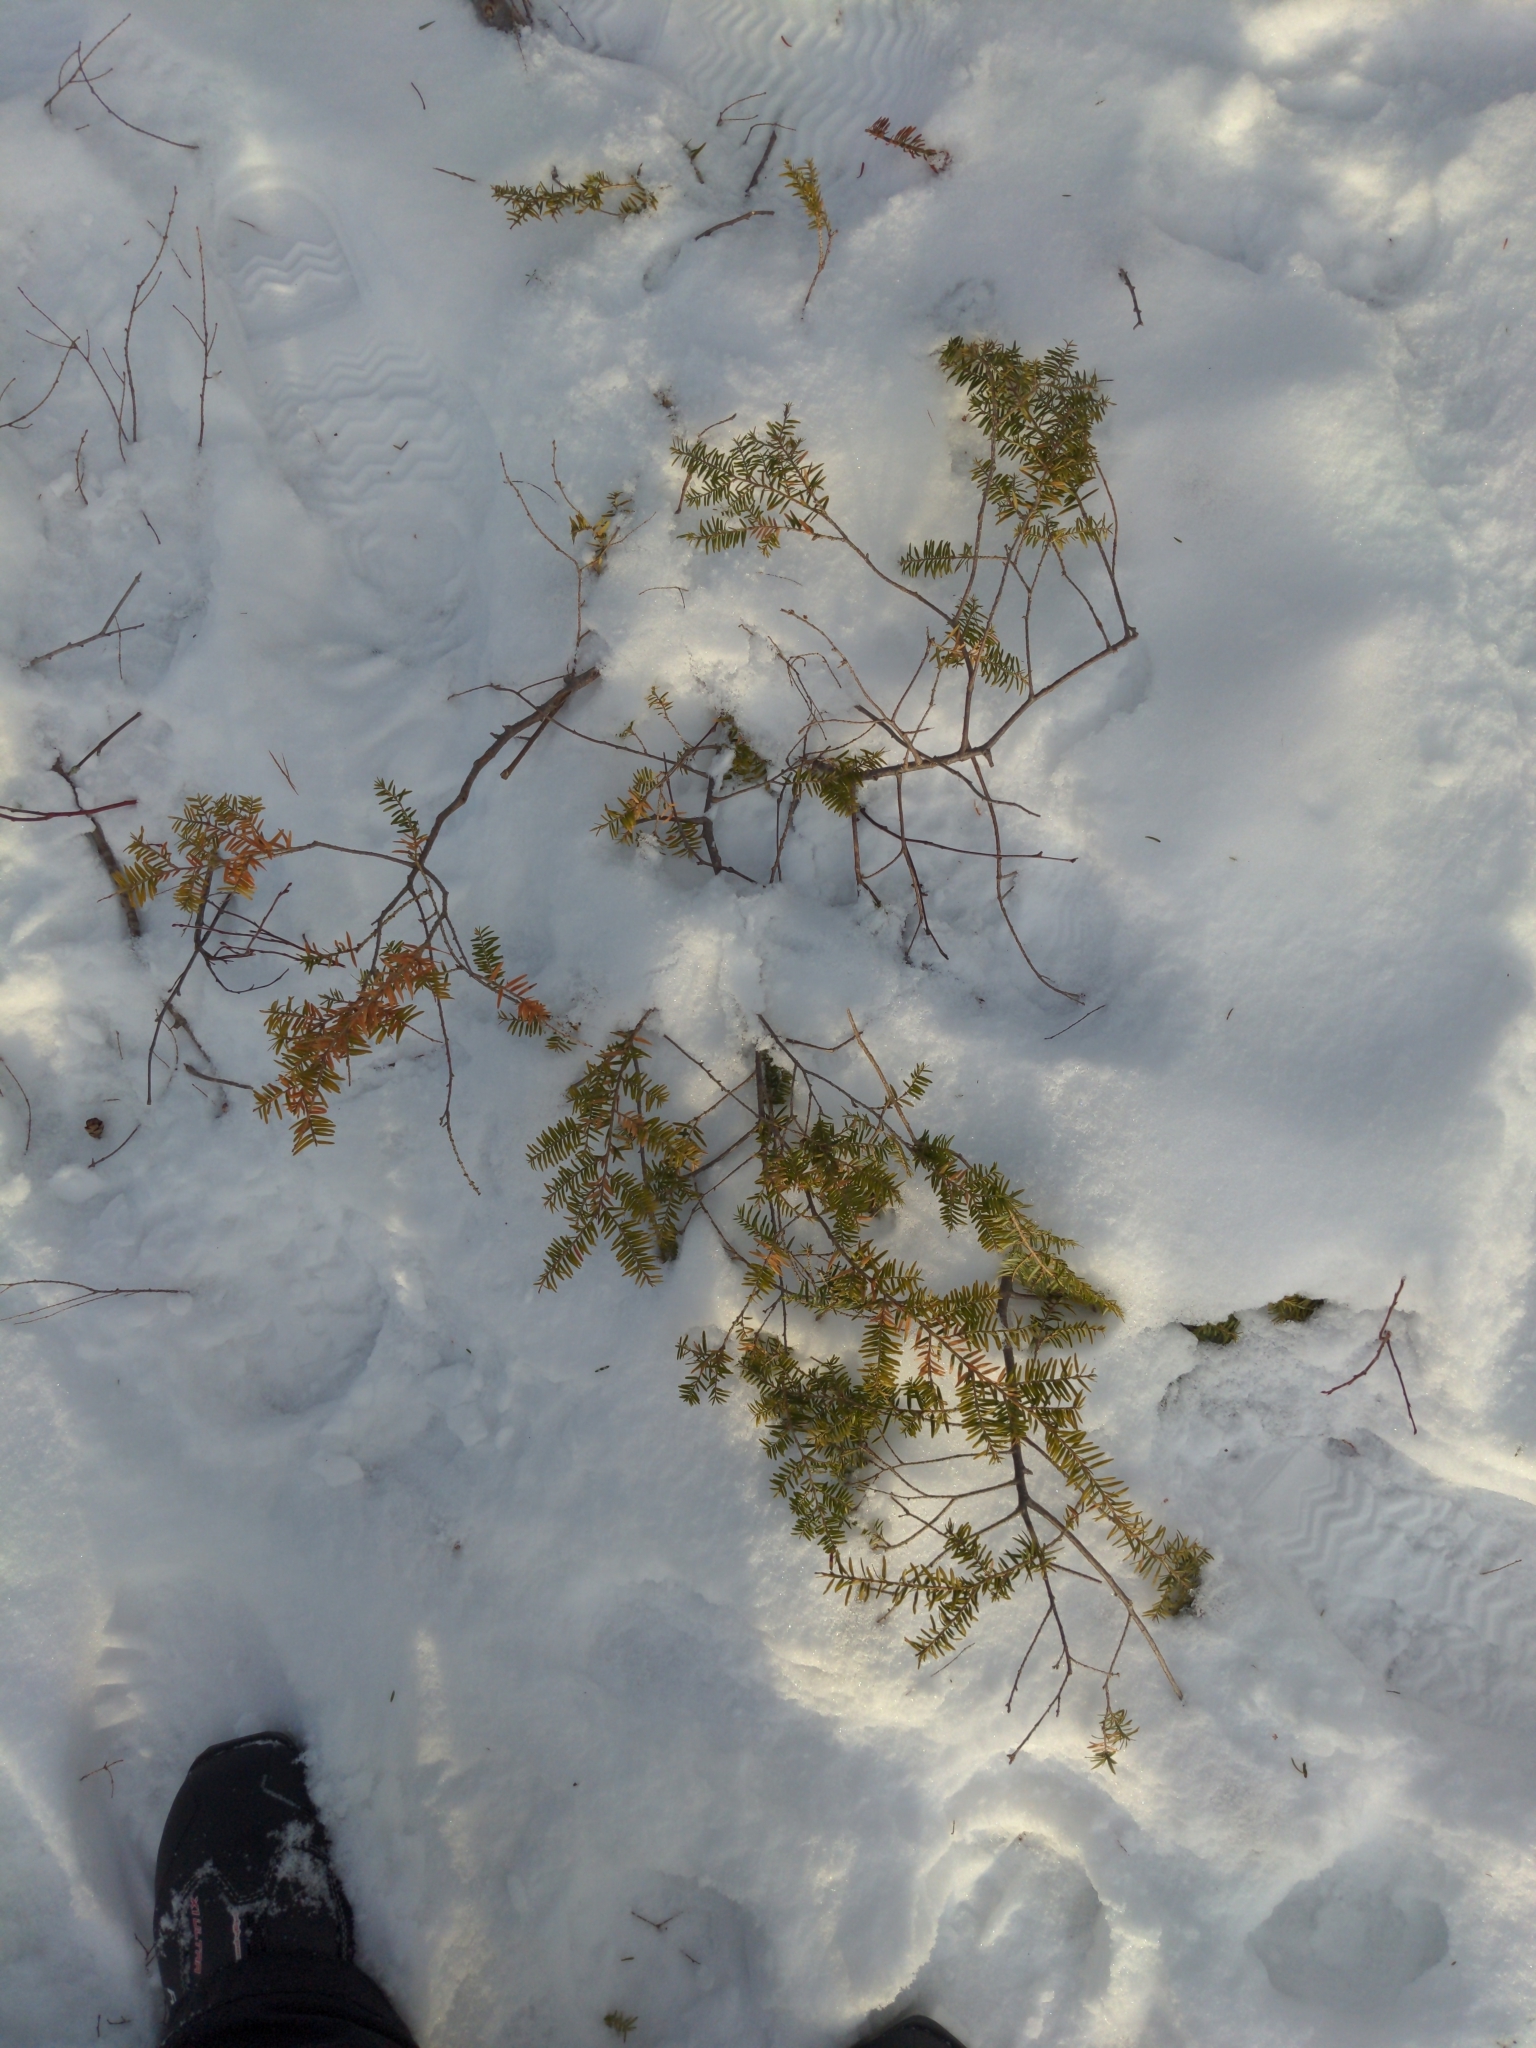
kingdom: Plantae
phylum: Tracheophyta
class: Pinopsida
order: Pinales
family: Pinaceae
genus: Tsuga
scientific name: Tsuga canadensis
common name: Eastern hemlock
